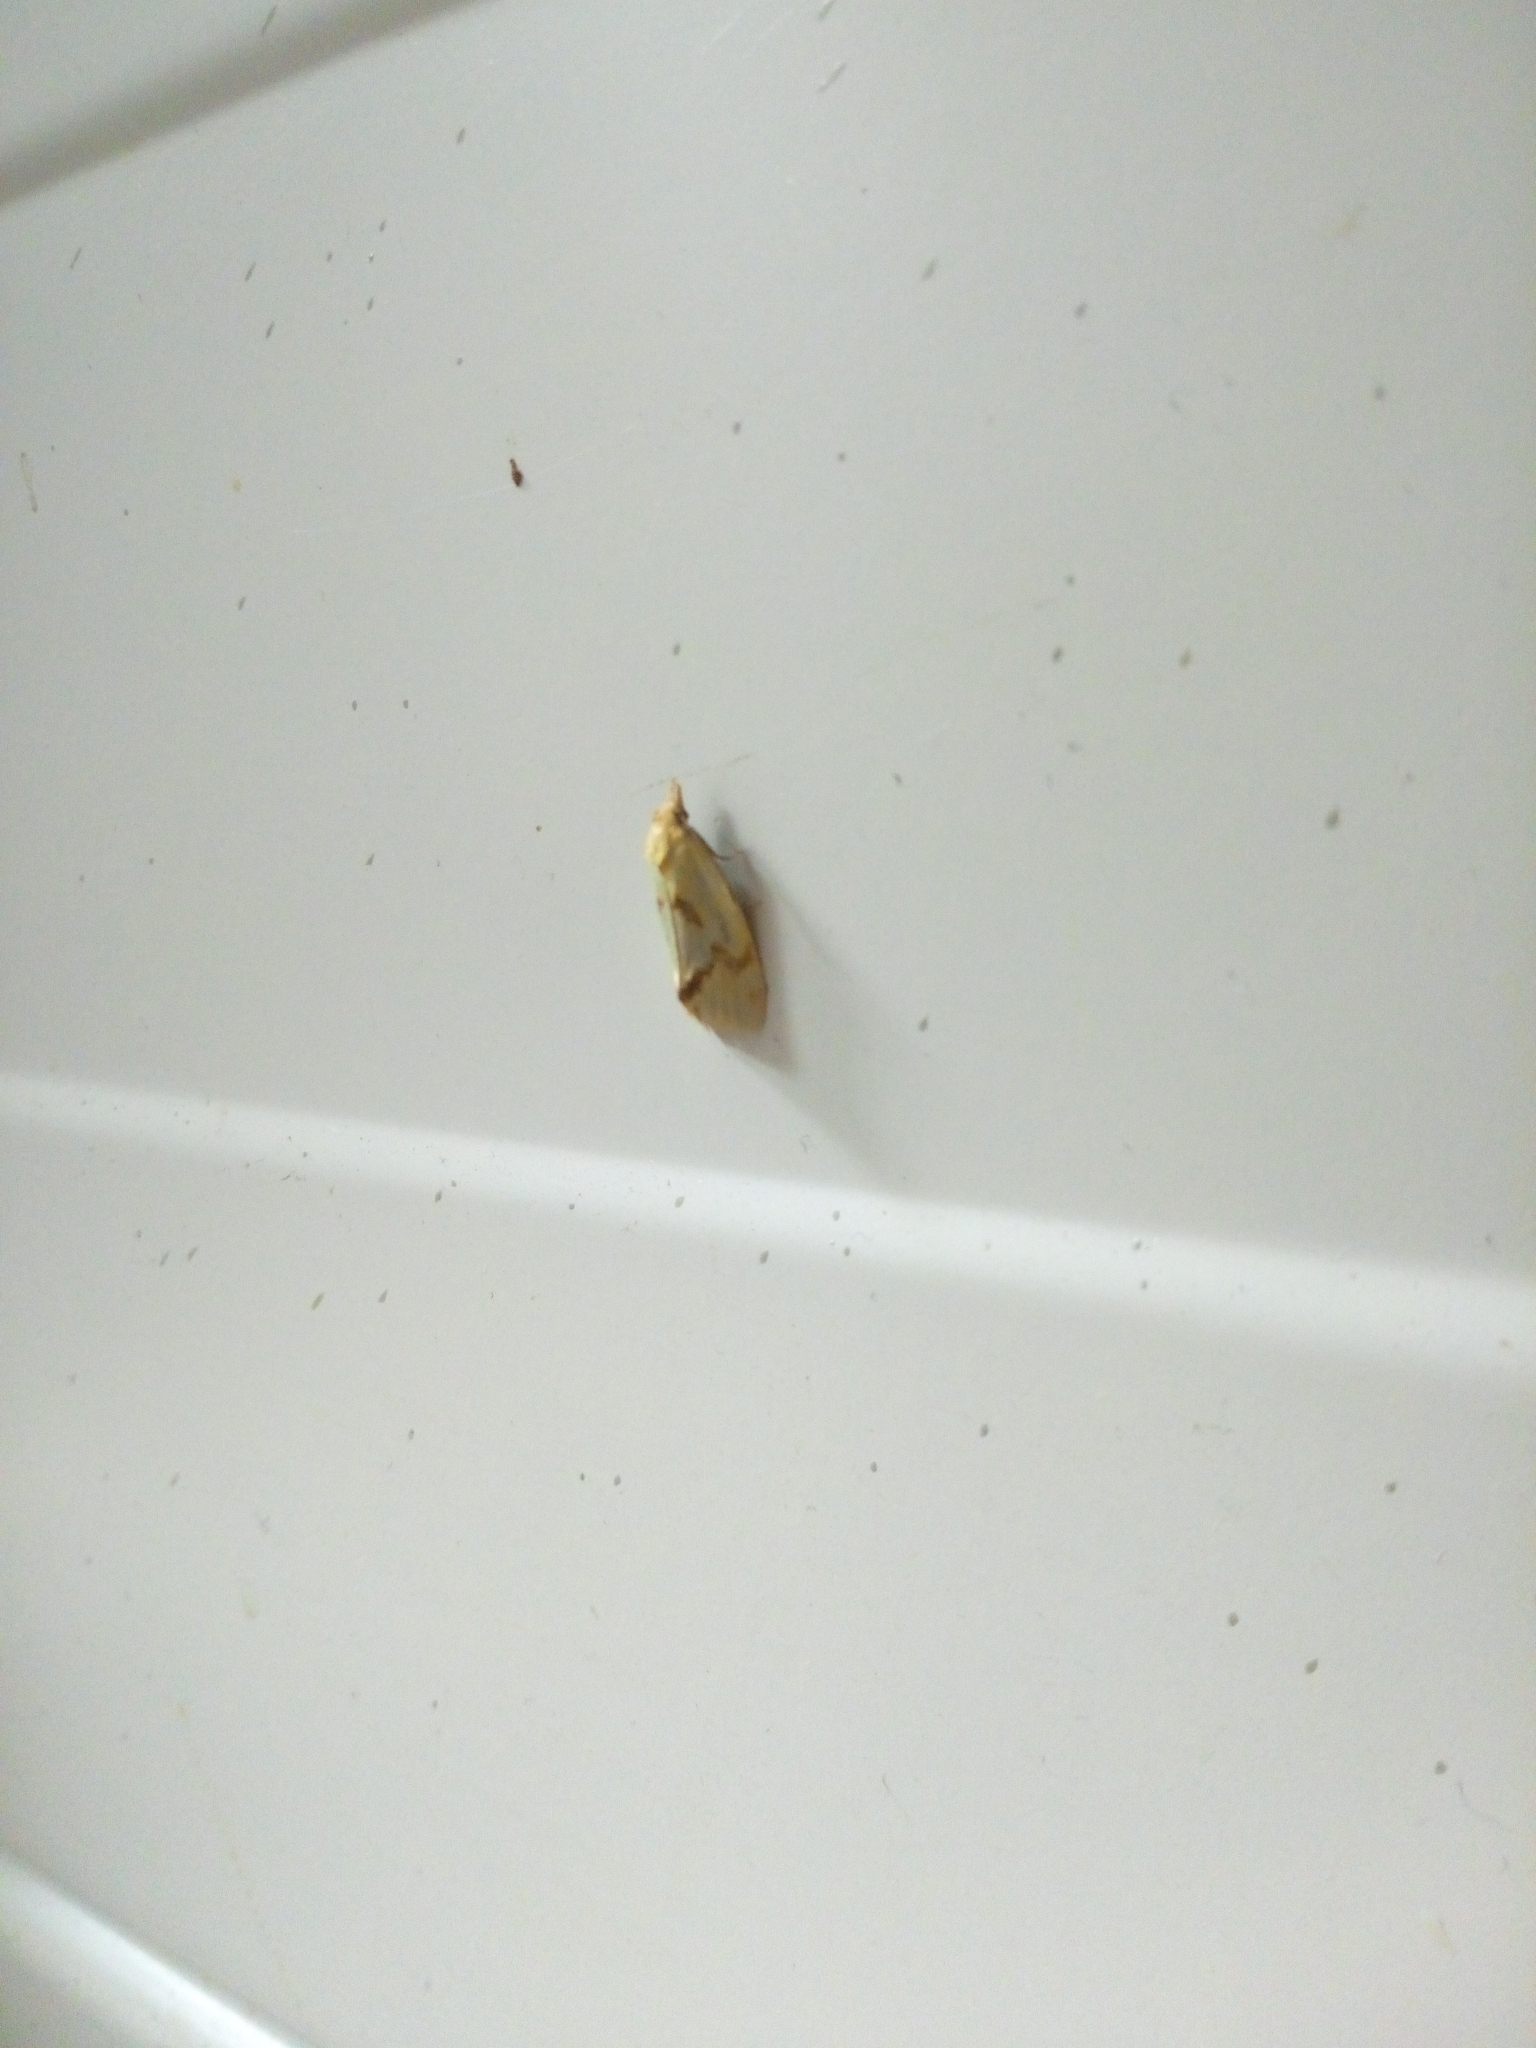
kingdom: Animalia
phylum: Arthropoda
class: Insecta
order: Lepidoptera
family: Tortricidae
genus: Agapeta
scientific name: Agapeta hamana
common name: Common yellow conch
